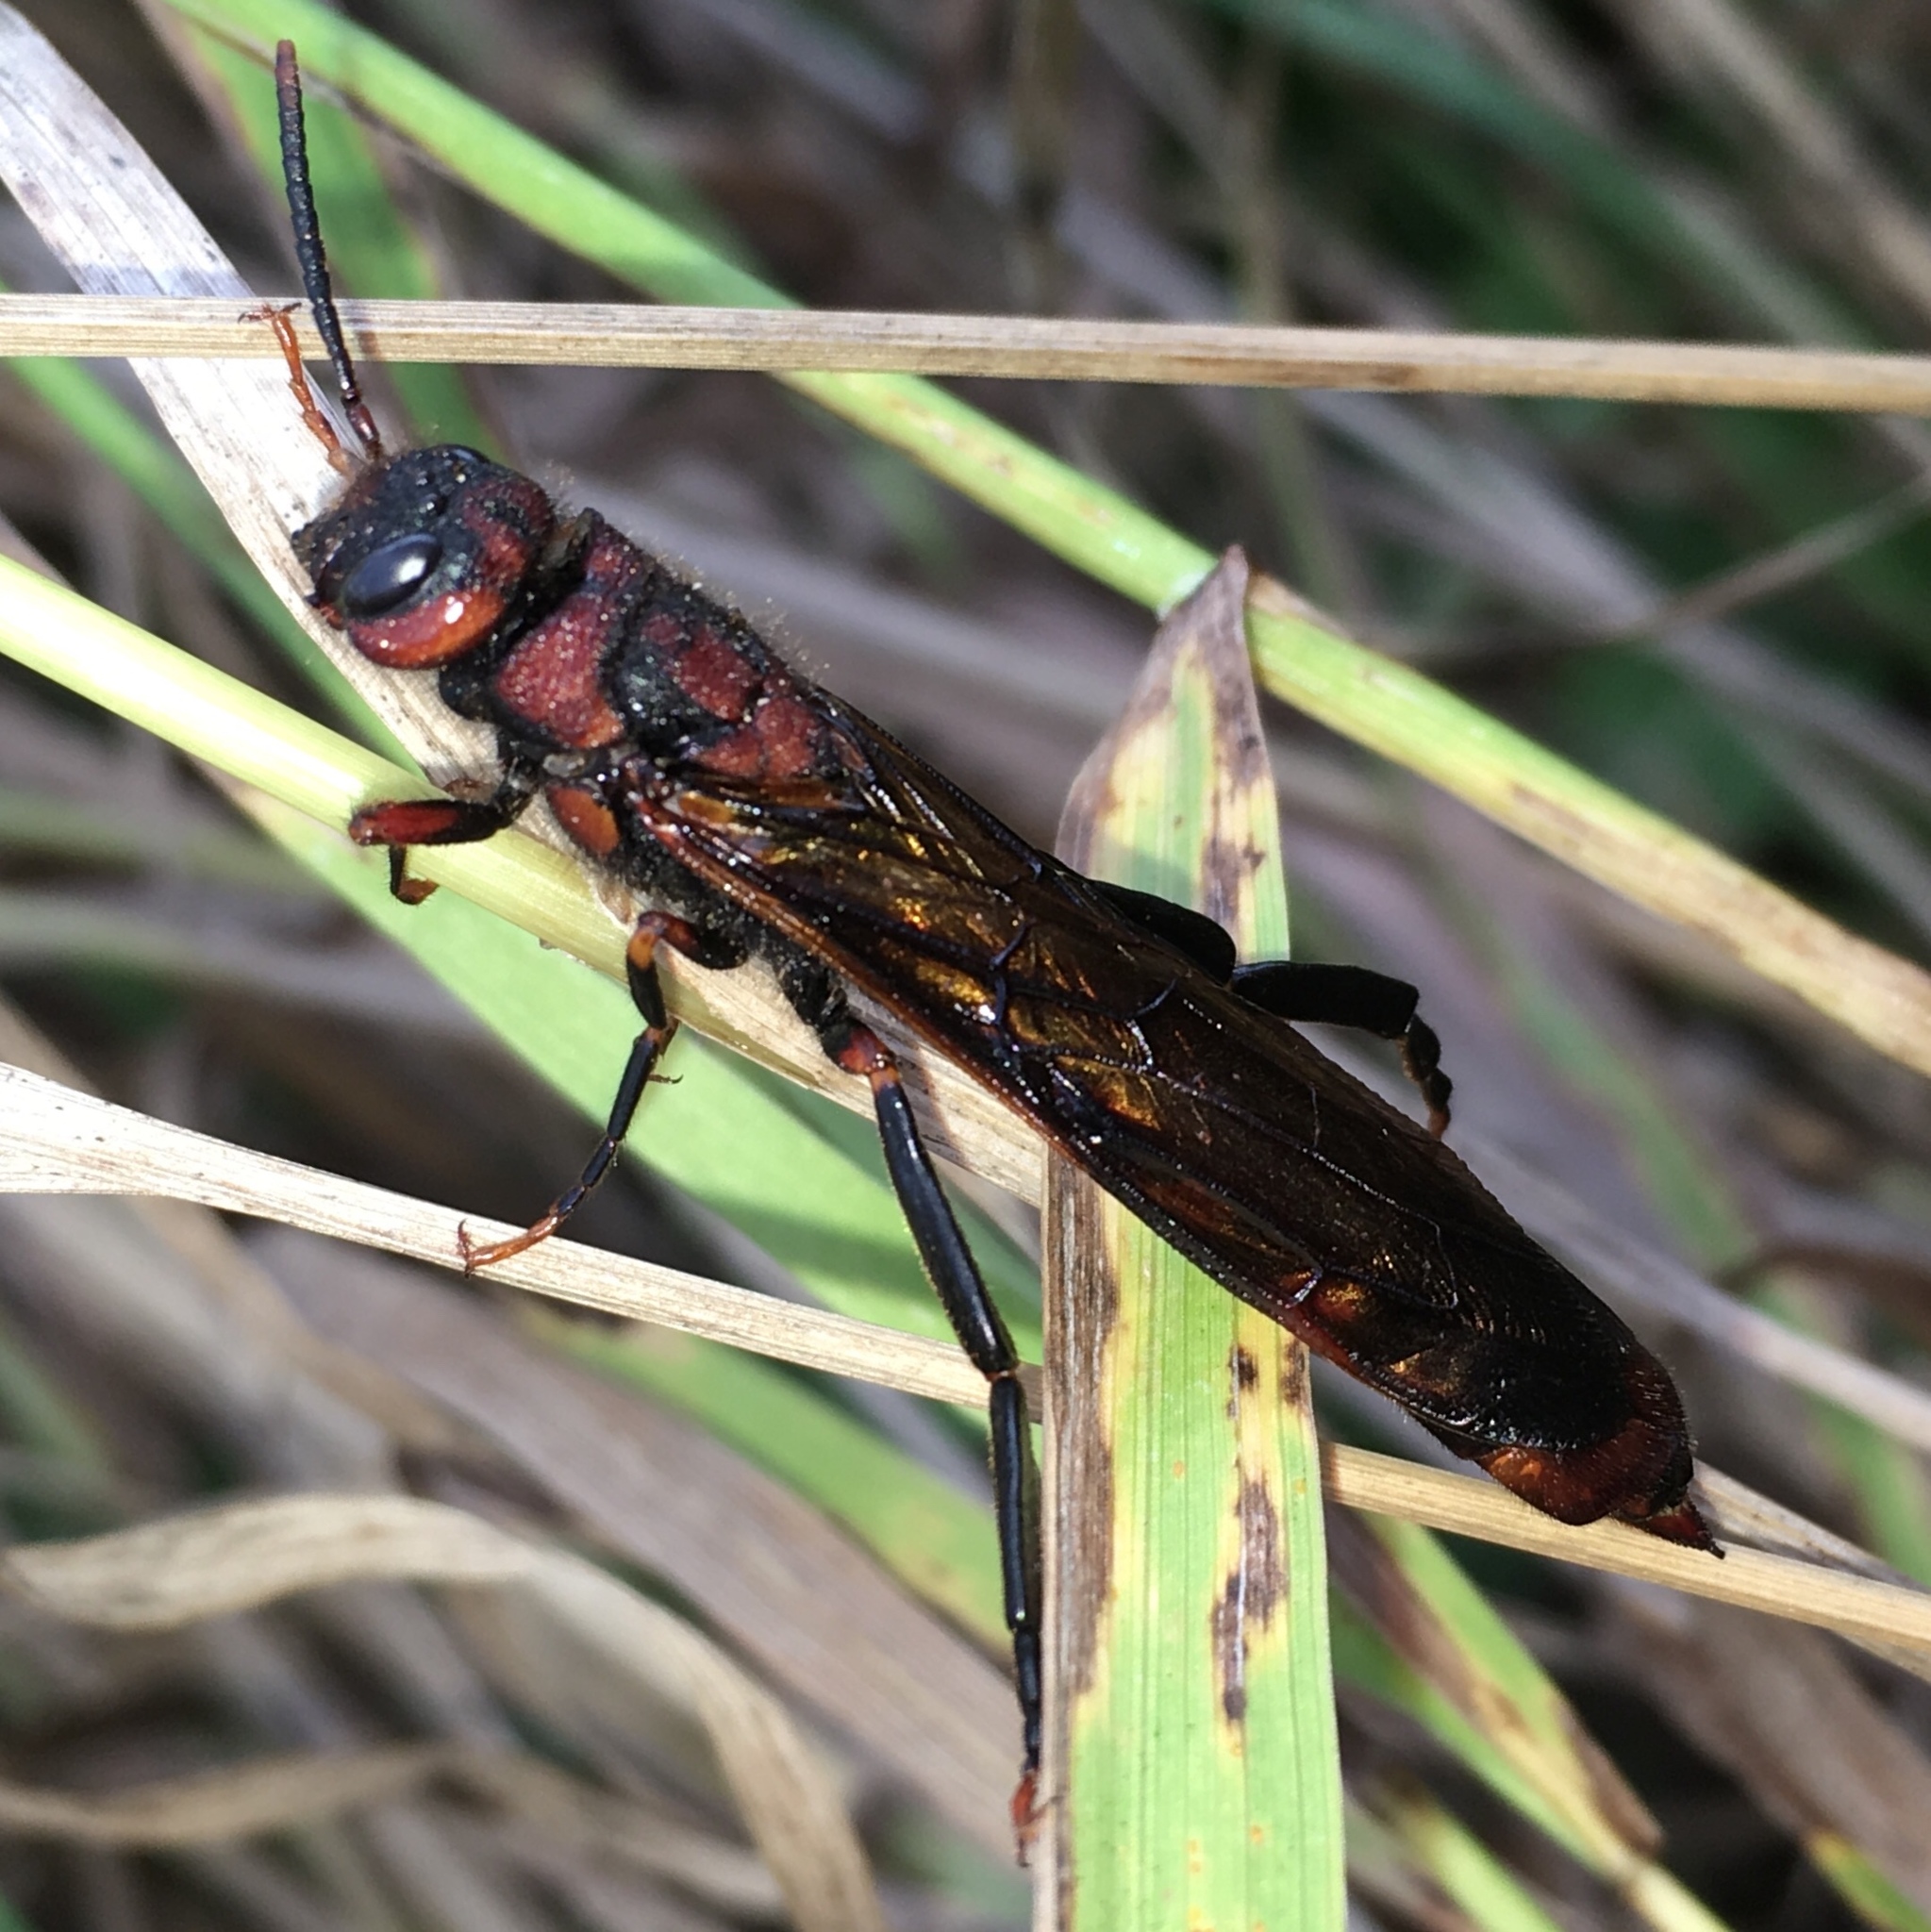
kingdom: Animalia
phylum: Arthropoda
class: Insecta
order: Hymenoptera
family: Siricidae
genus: Tremex
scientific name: Tremex columba
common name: Wasp
